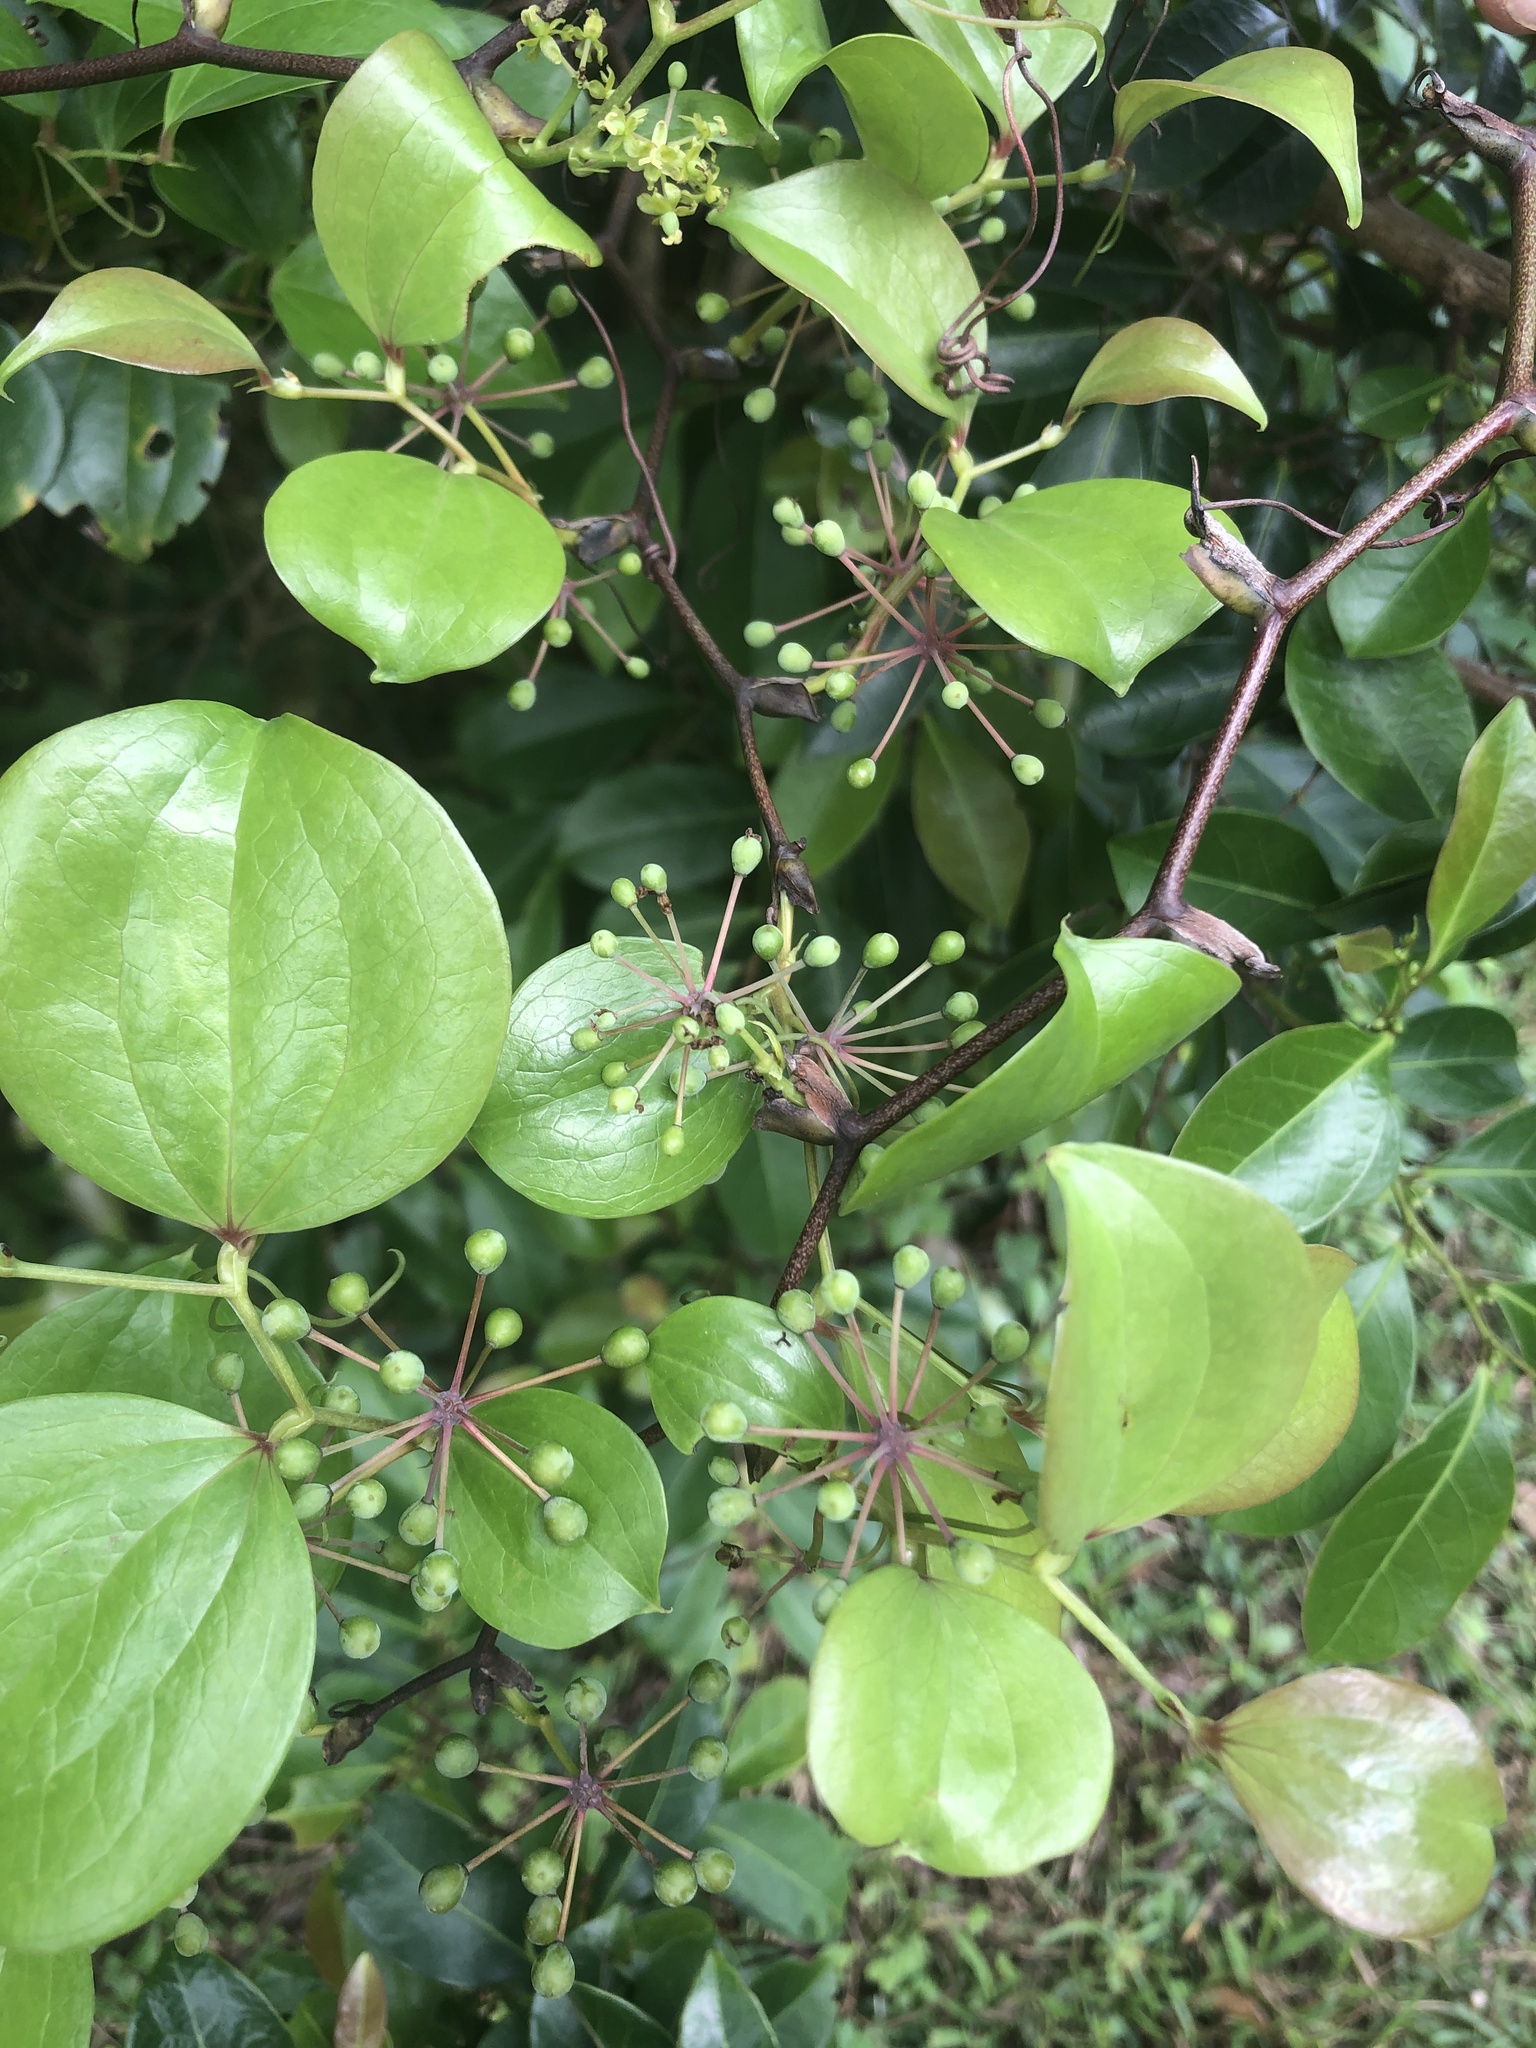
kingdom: Plantae
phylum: Tracheophyta
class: Liliopsida
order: Liliales
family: Smilacaceae
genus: Smilax
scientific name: Smilax china
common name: Chinaroot
